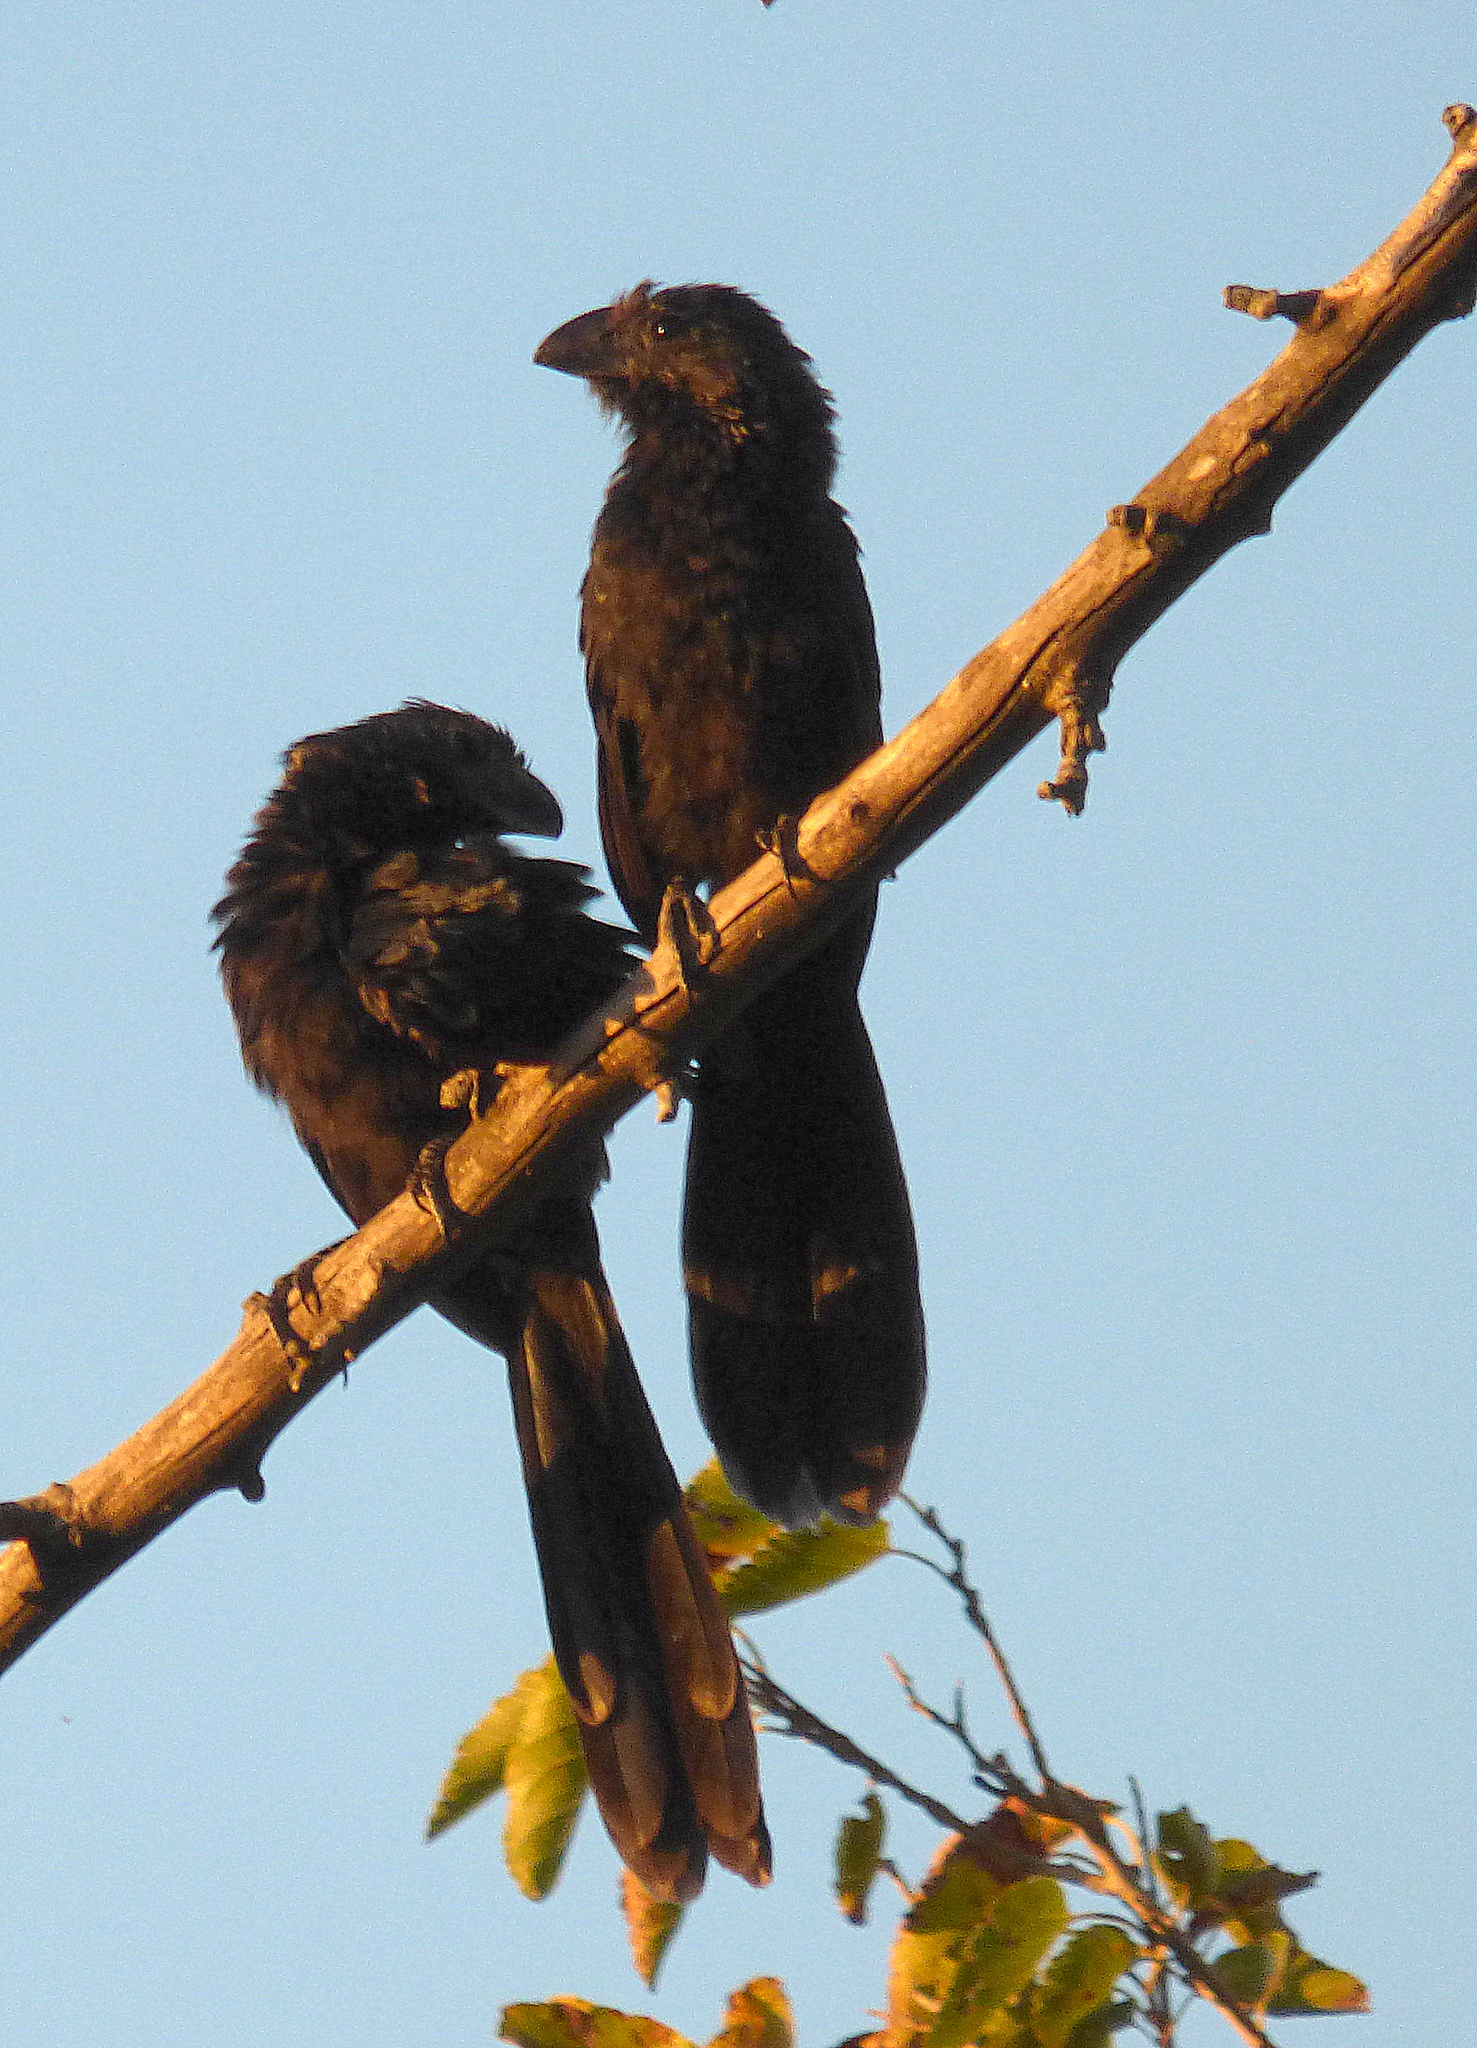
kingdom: Animalia
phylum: Chordata
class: Aves
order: Cuculiformes
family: Cuculidae
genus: Crotophaga
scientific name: Crotophaga ani
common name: Smooth-billed ani
